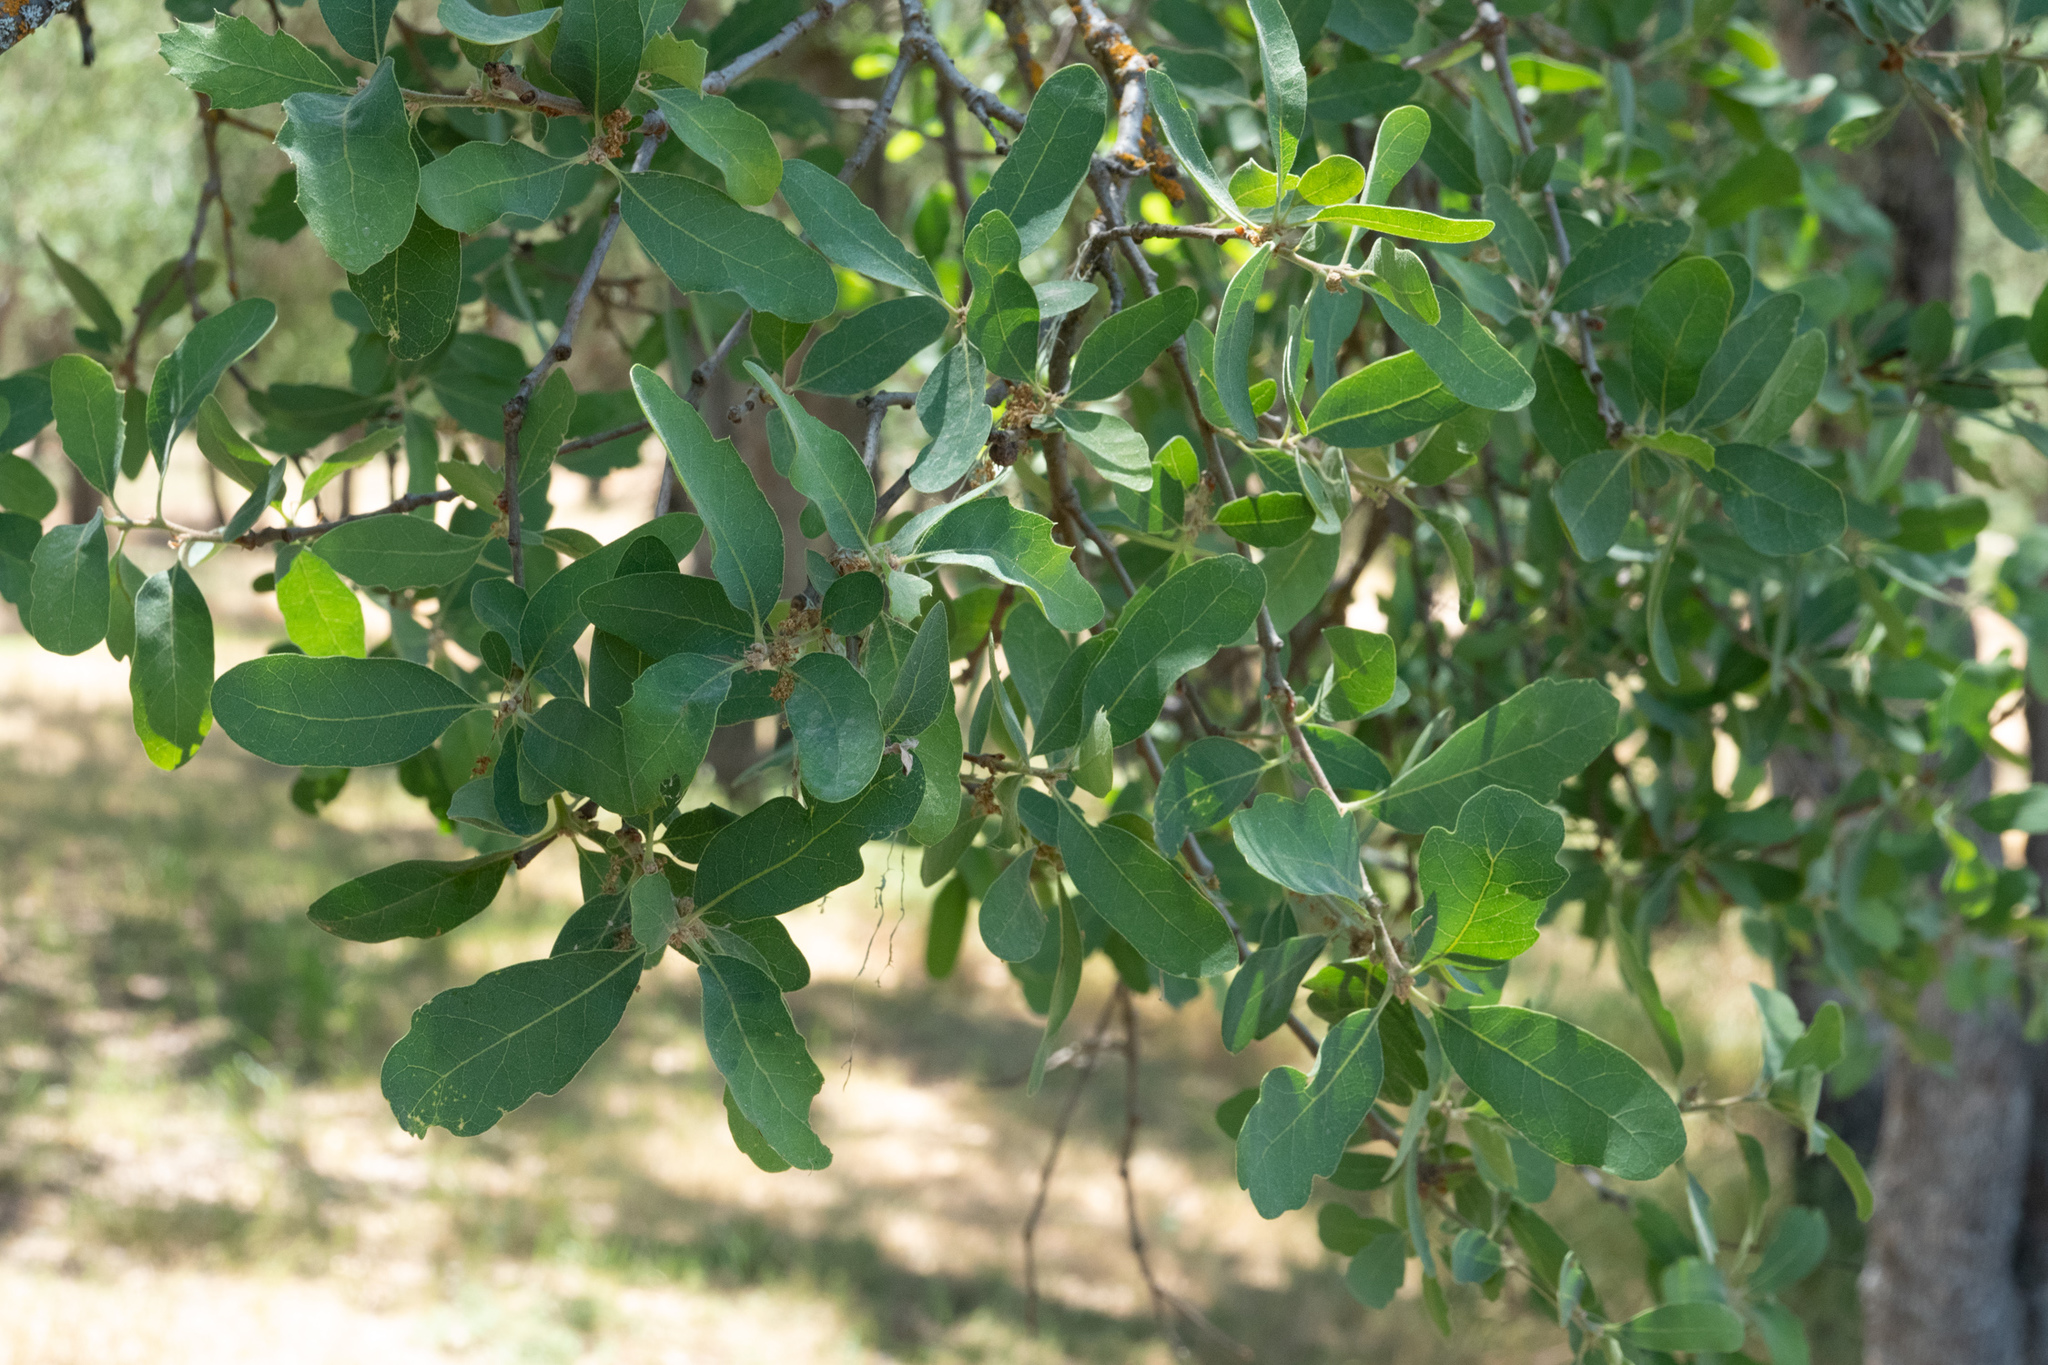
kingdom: Plantae
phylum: Tracheophyta
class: Magnoliopsida
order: Fagales
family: Fagaceae
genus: Quercus
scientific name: Quercus douglasii
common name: Blue oak
